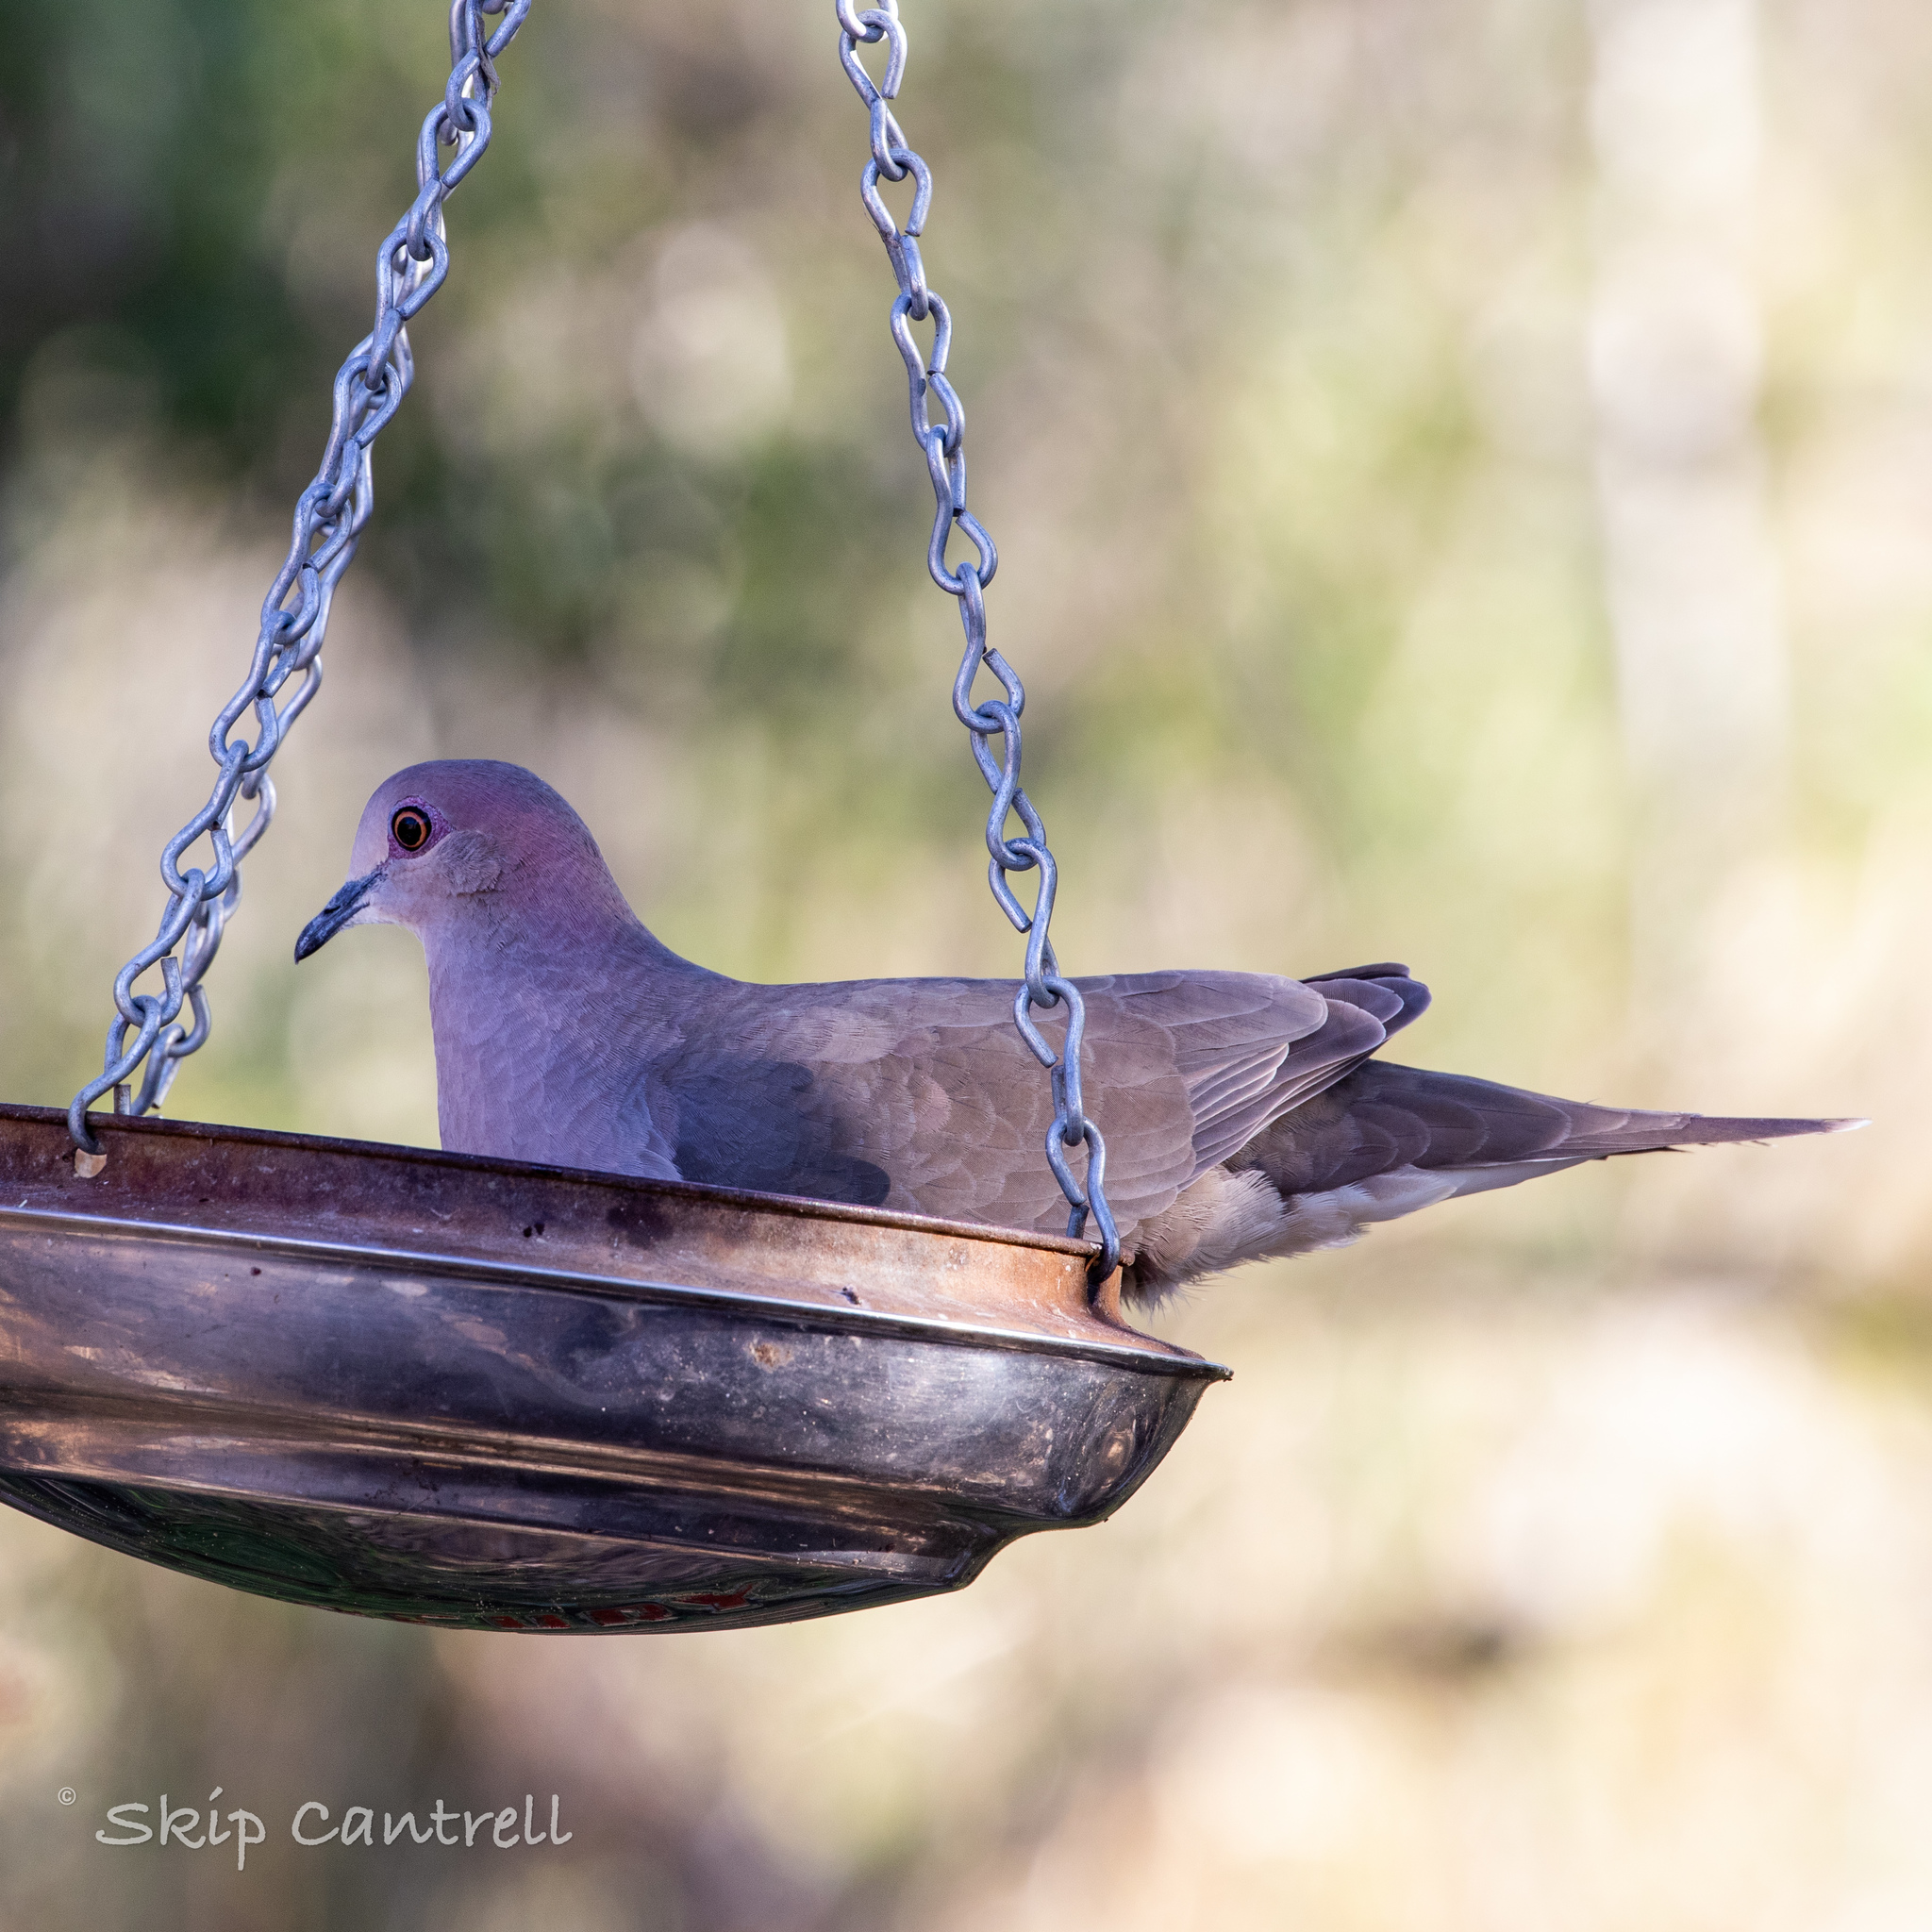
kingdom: Animalia
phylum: Chordata
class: Aves
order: Columbiformes
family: Columbidae
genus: Leptotila
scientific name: Leptotila verreauxi
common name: White-tipped dove
